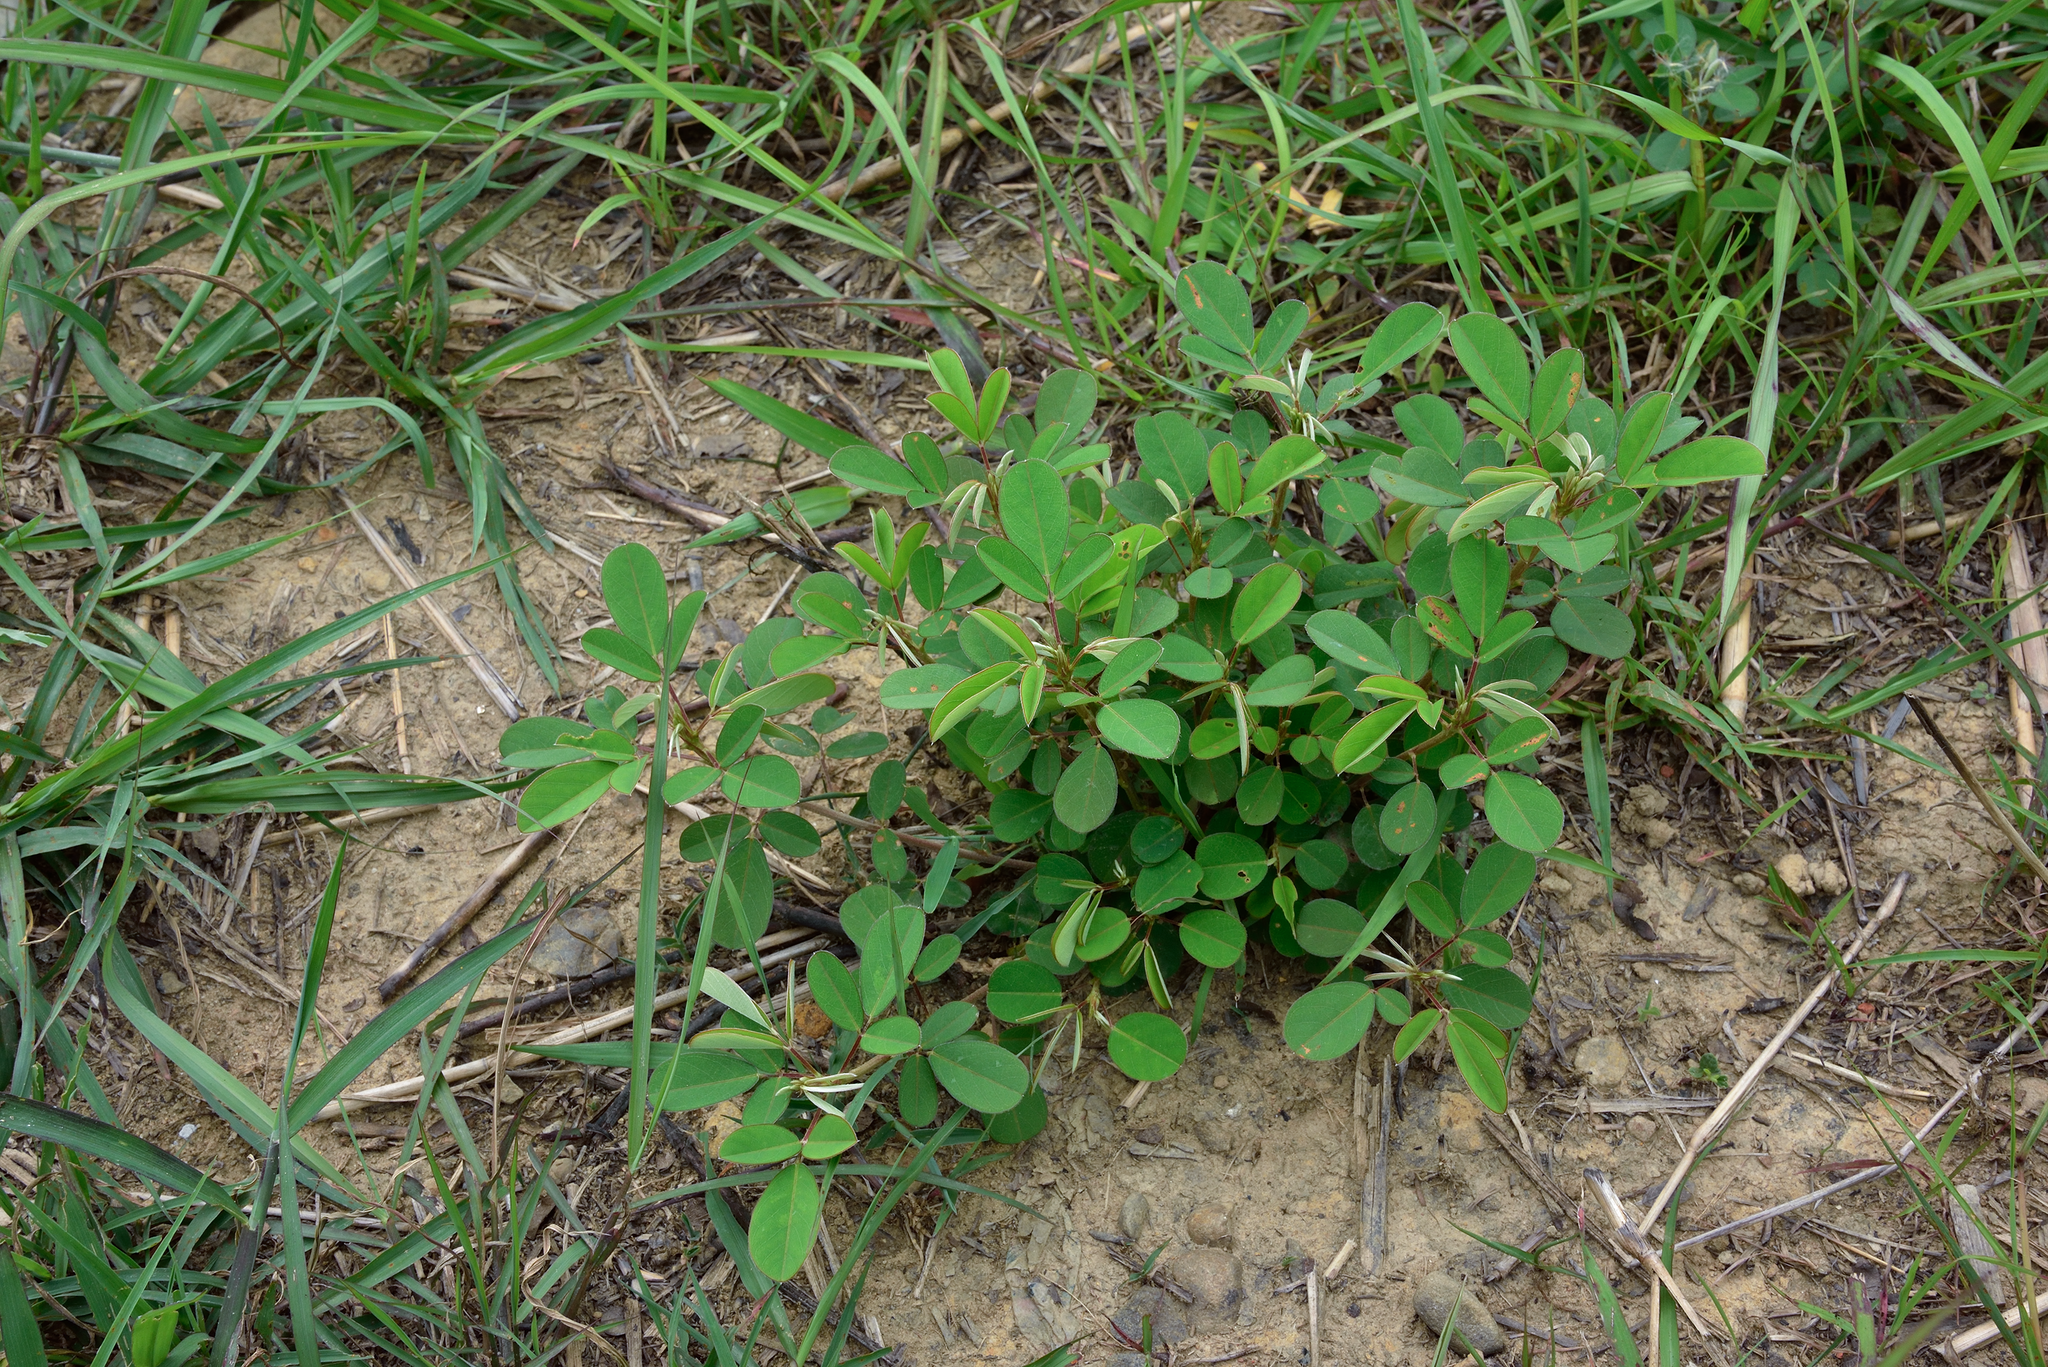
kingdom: Plantae
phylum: Tracheophyta
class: Magnoliopsida
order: Fabales
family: Fabaceae
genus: Grona
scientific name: Grona heterocarpos
